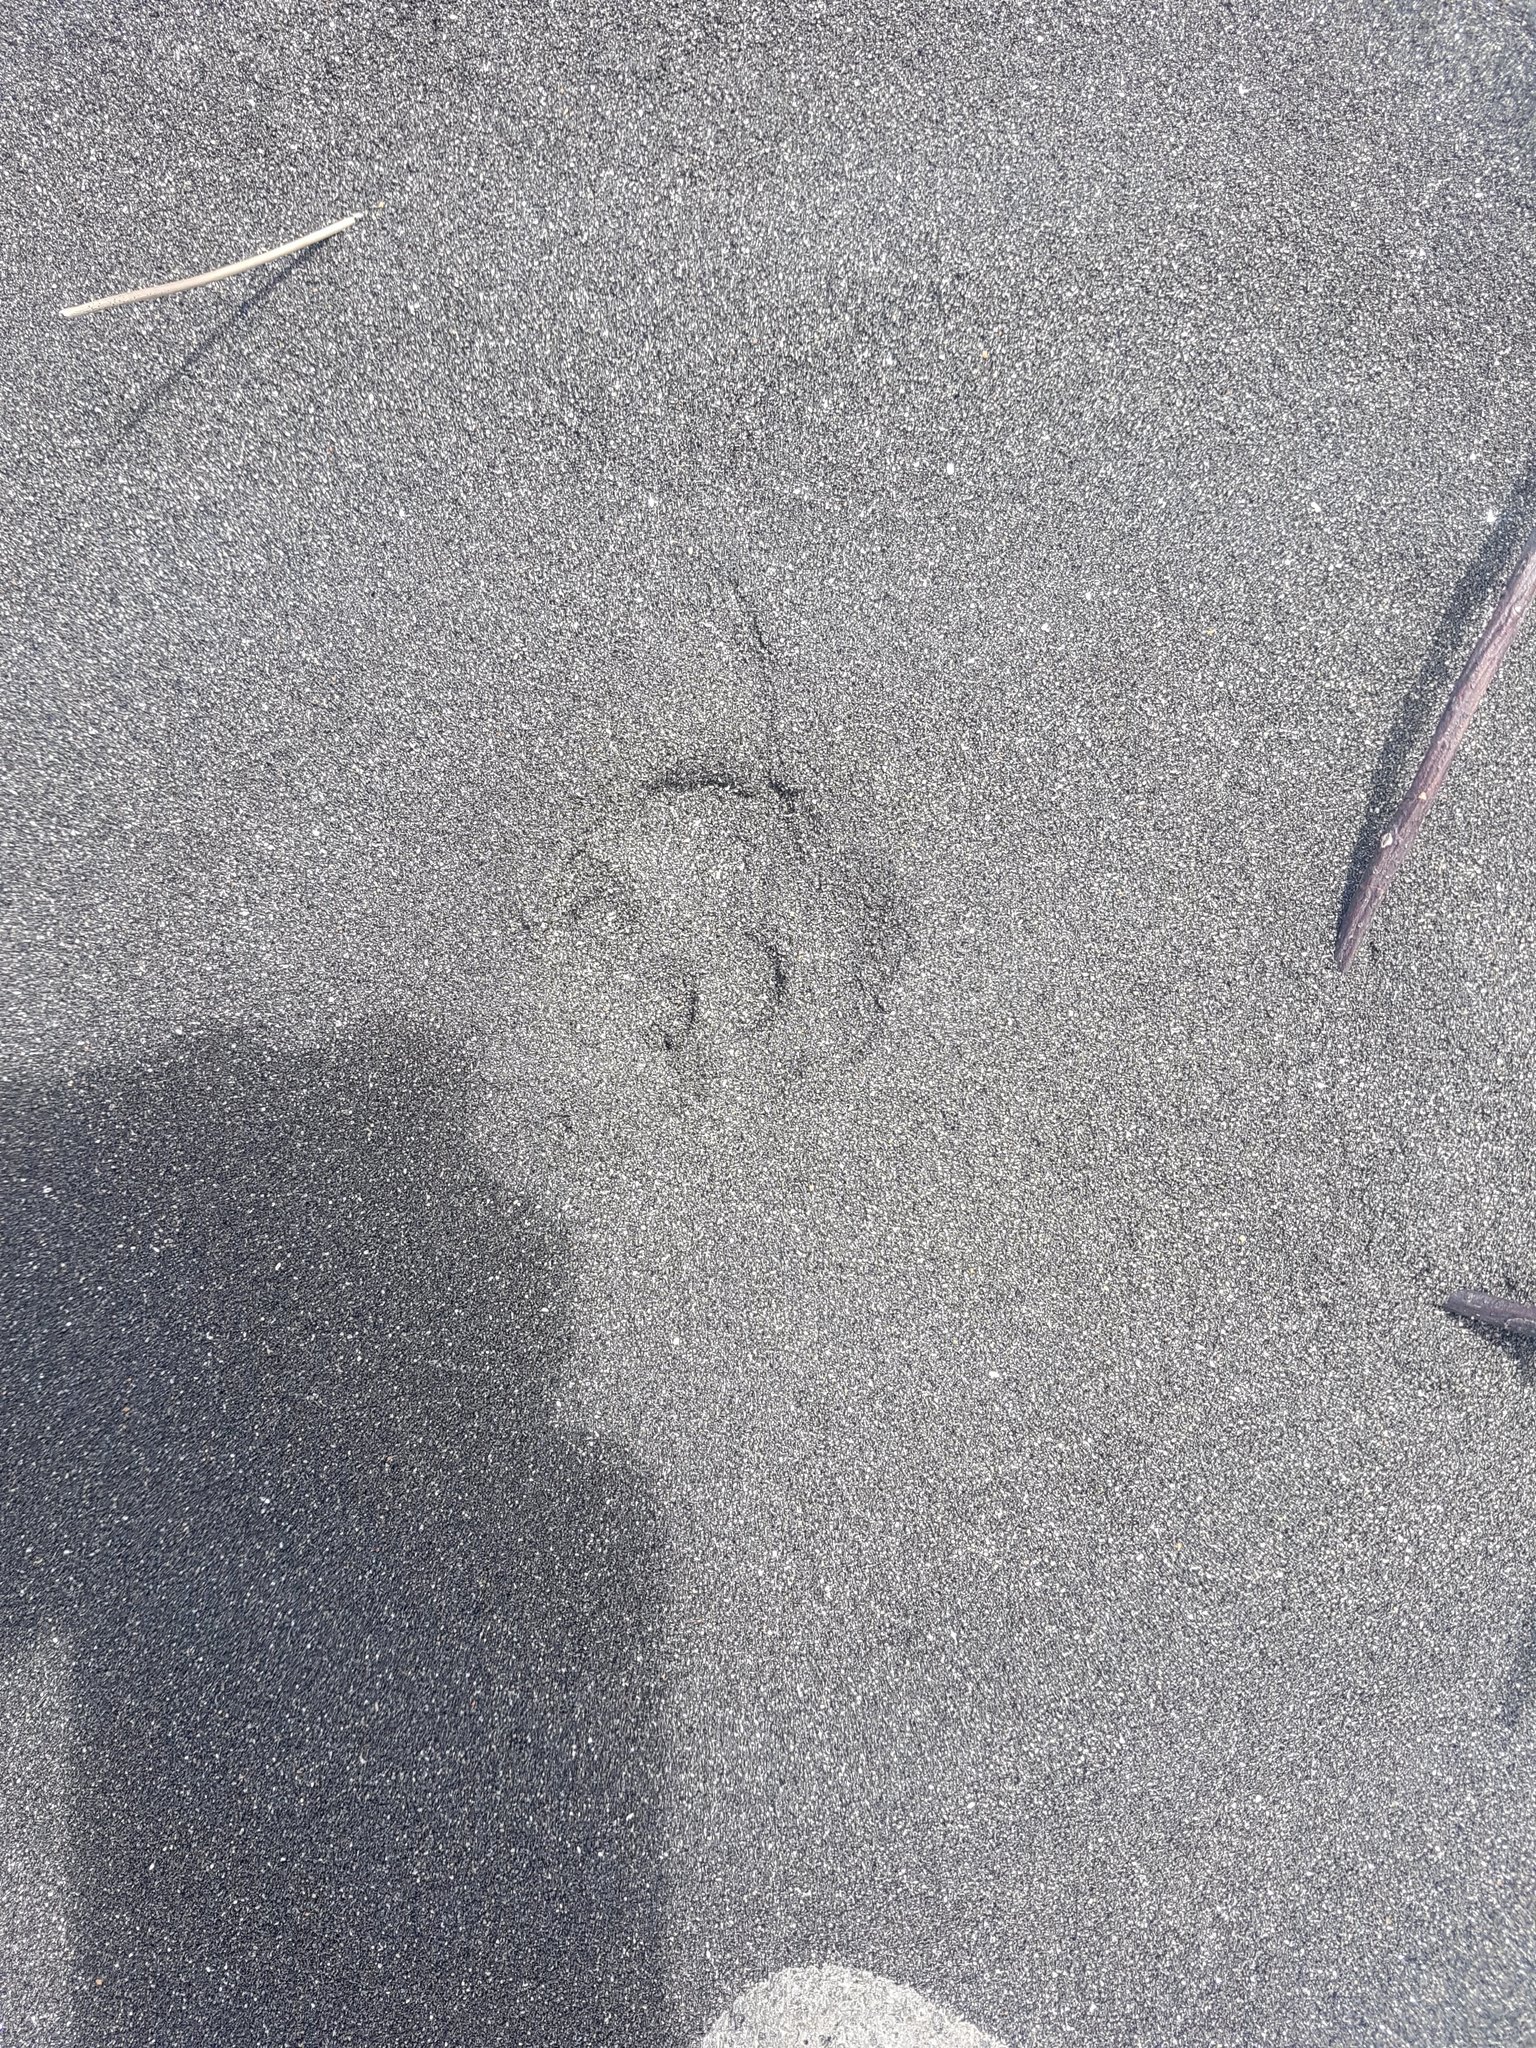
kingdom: Animalia
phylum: Chordata
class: Mammalia
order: Carnivora
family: Felidae
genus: Felis
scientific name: Felis catus
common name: Domestic cat
